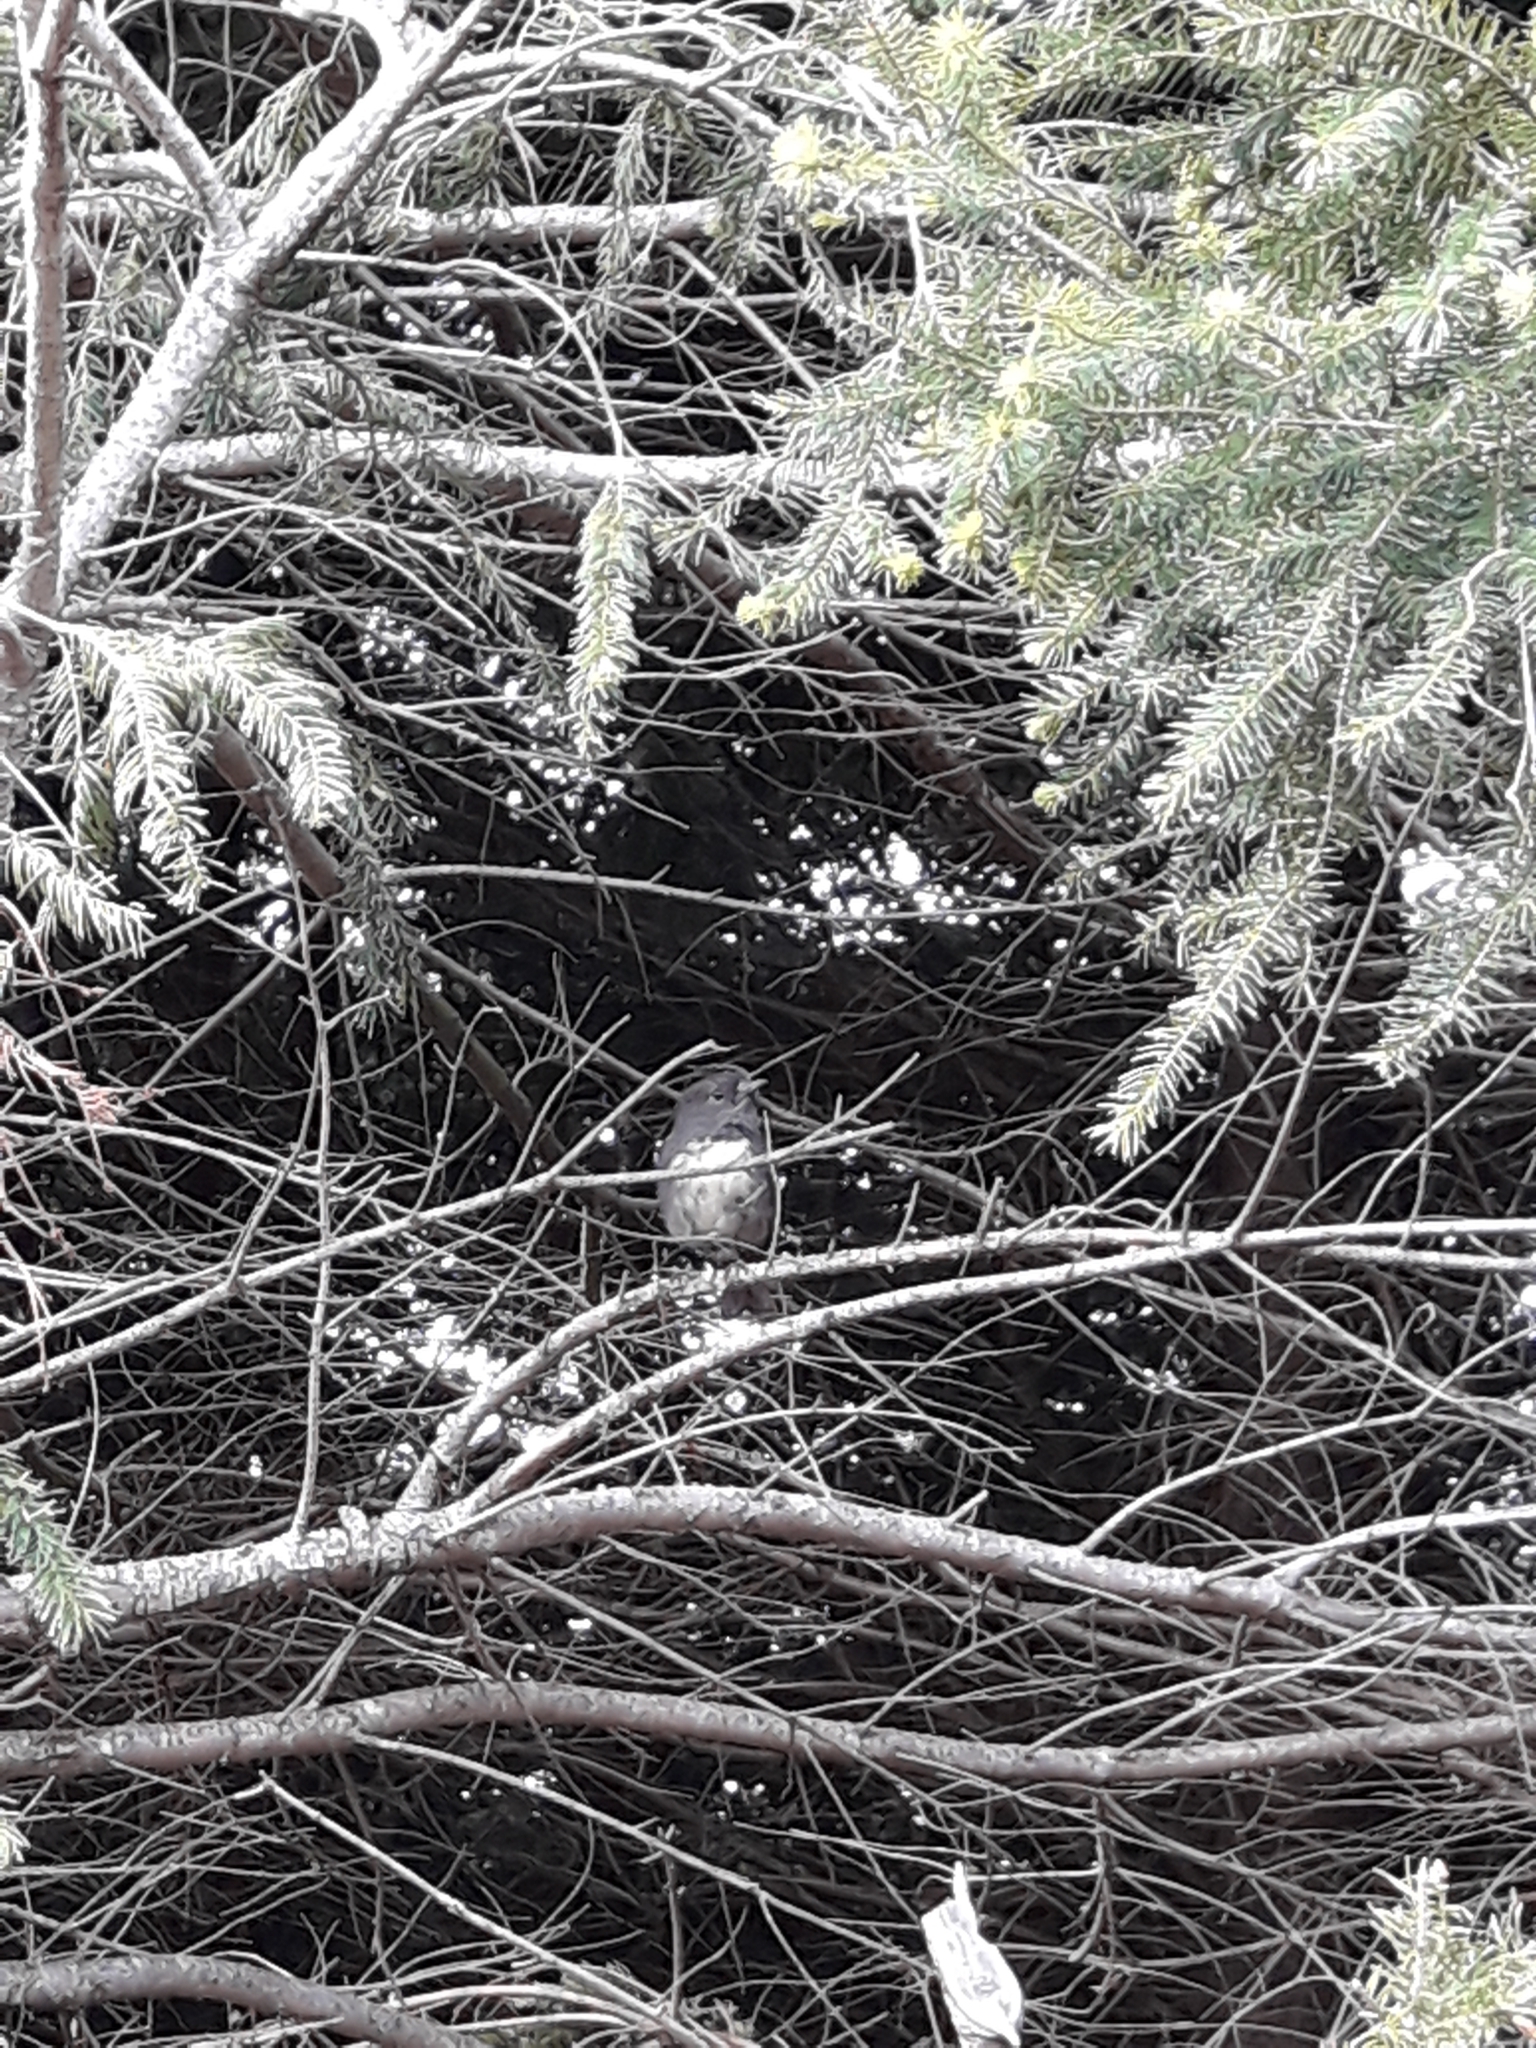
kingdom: Animalia
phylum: Chordata
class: Aves
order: Passeriformes
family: Petroicidae
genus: Petroica
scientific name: Petroica australis
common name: New zealand robin
